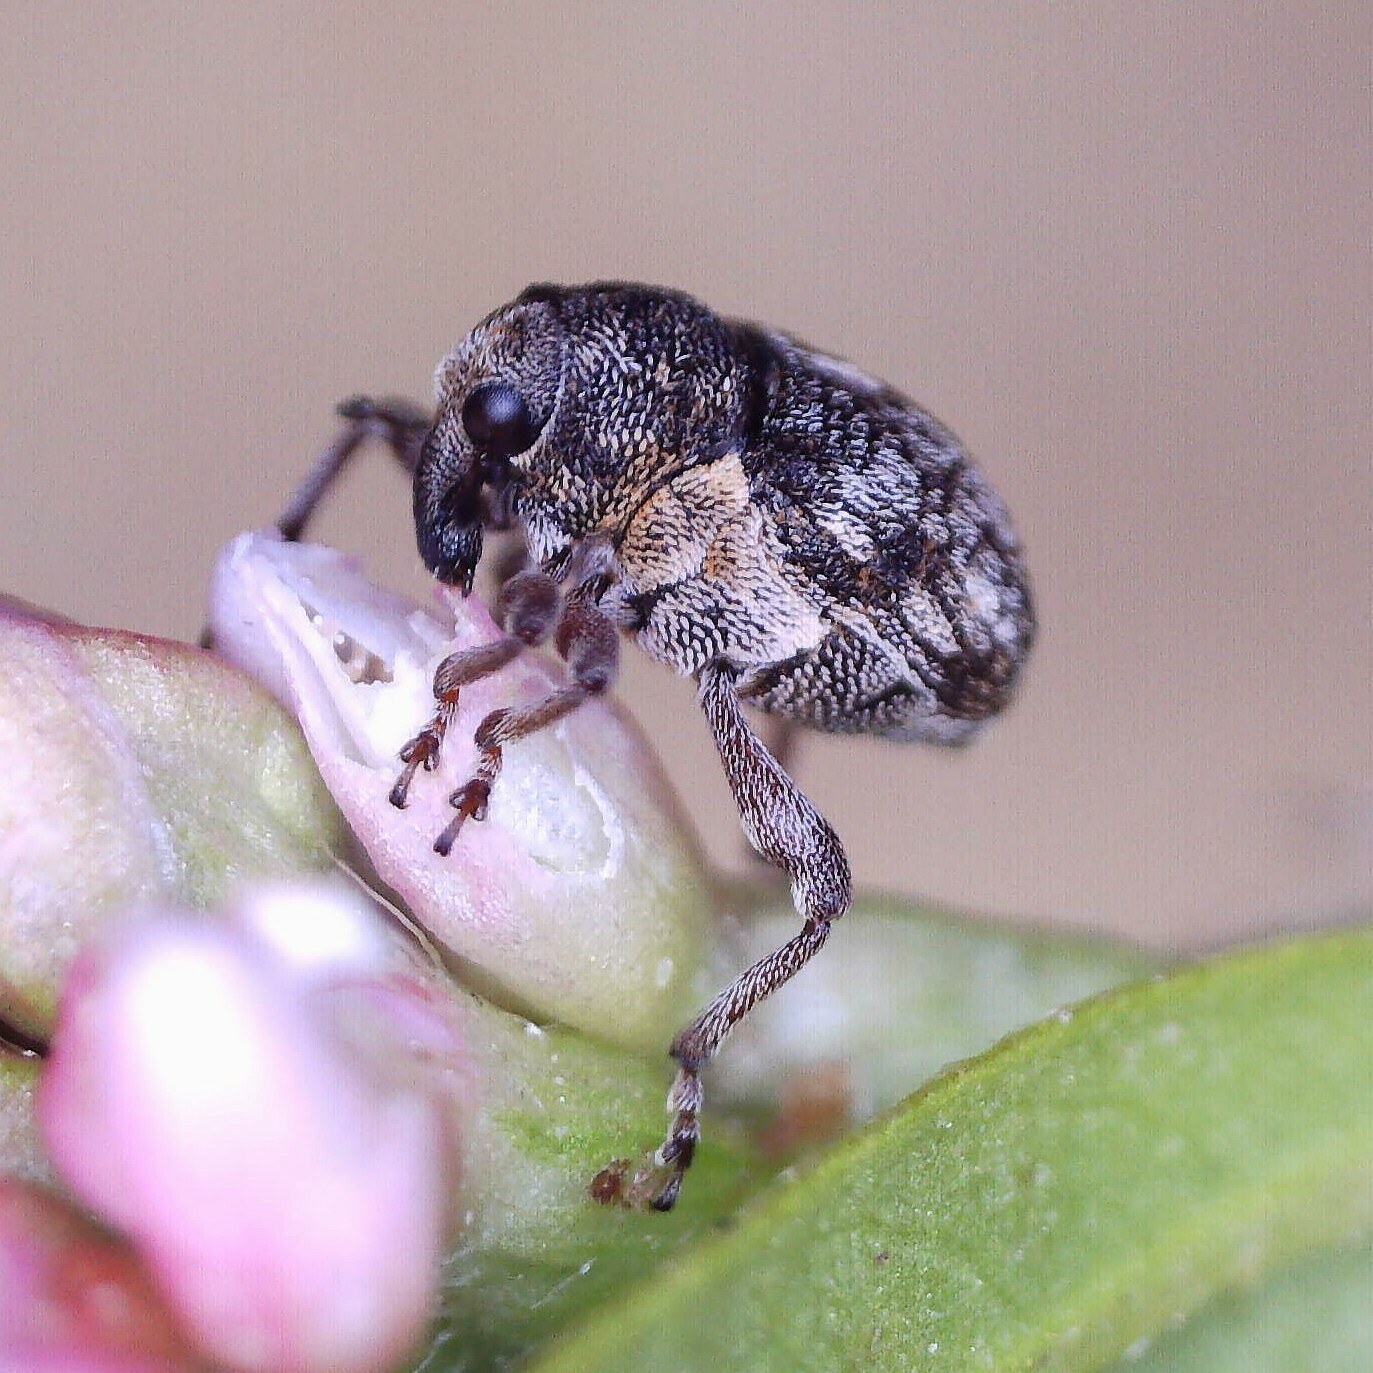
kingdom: Animalia
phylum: Arthropoda
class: Insecta
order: Coleoptera
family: Curculionidae
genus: Rhinoncus
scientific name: Rhinoncus pericarpius
